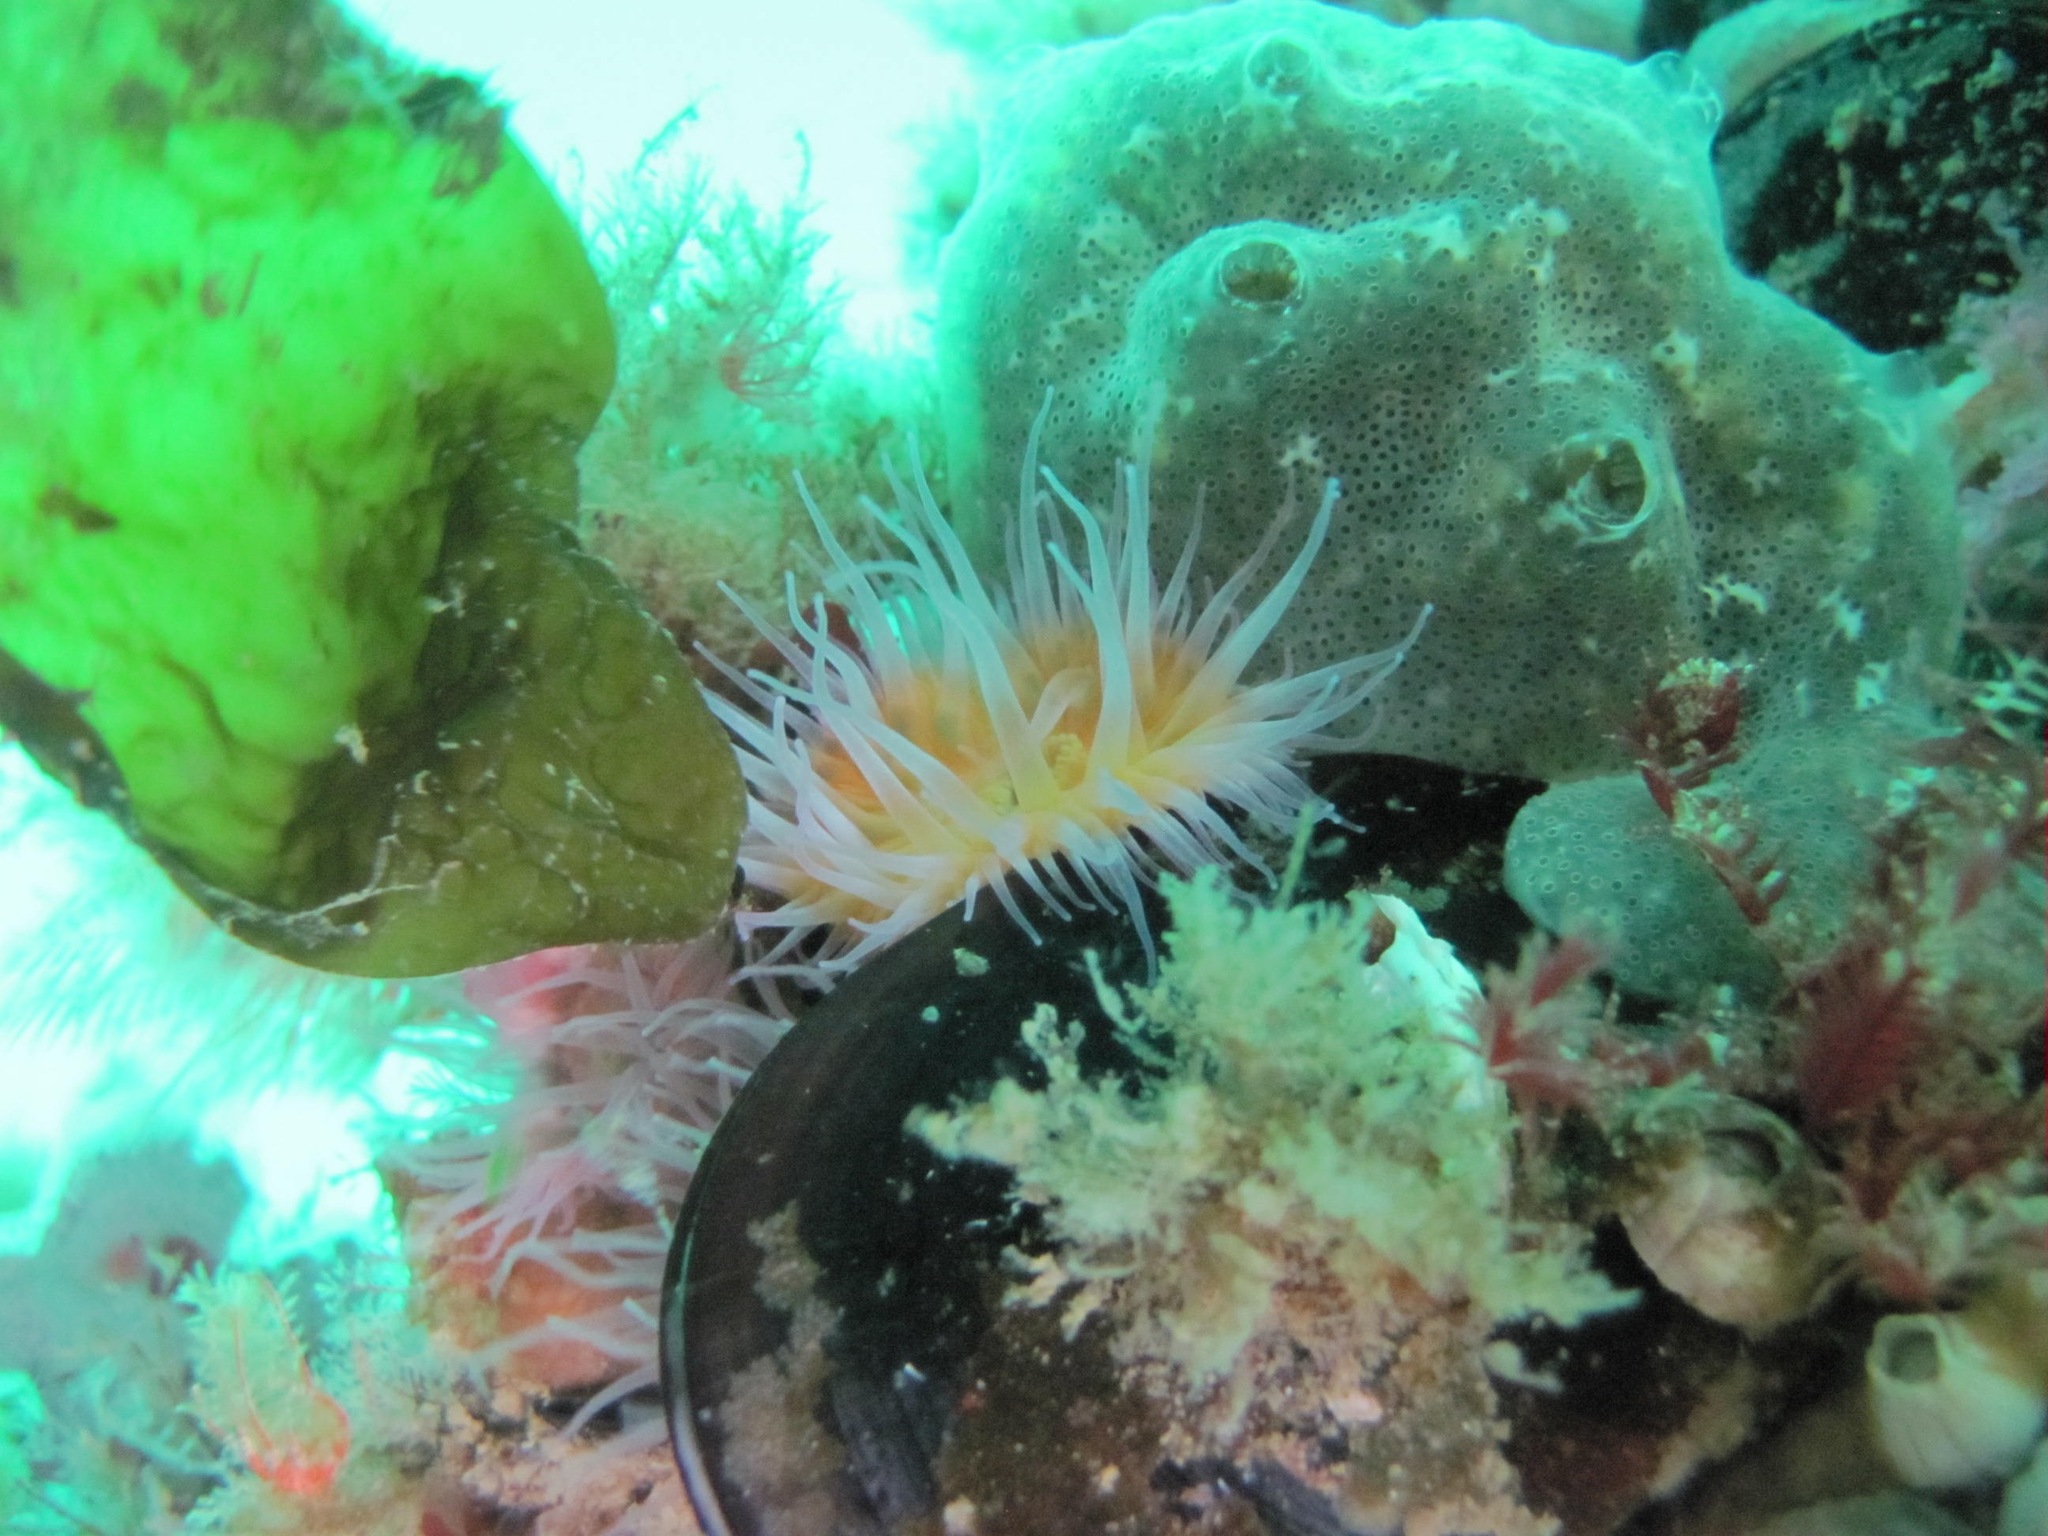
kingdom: Animalia
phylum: Cnidaria
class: Anthozoa
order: Actiniaria
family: Sagartiidae
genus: Cylista
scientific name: Cylista elegans
